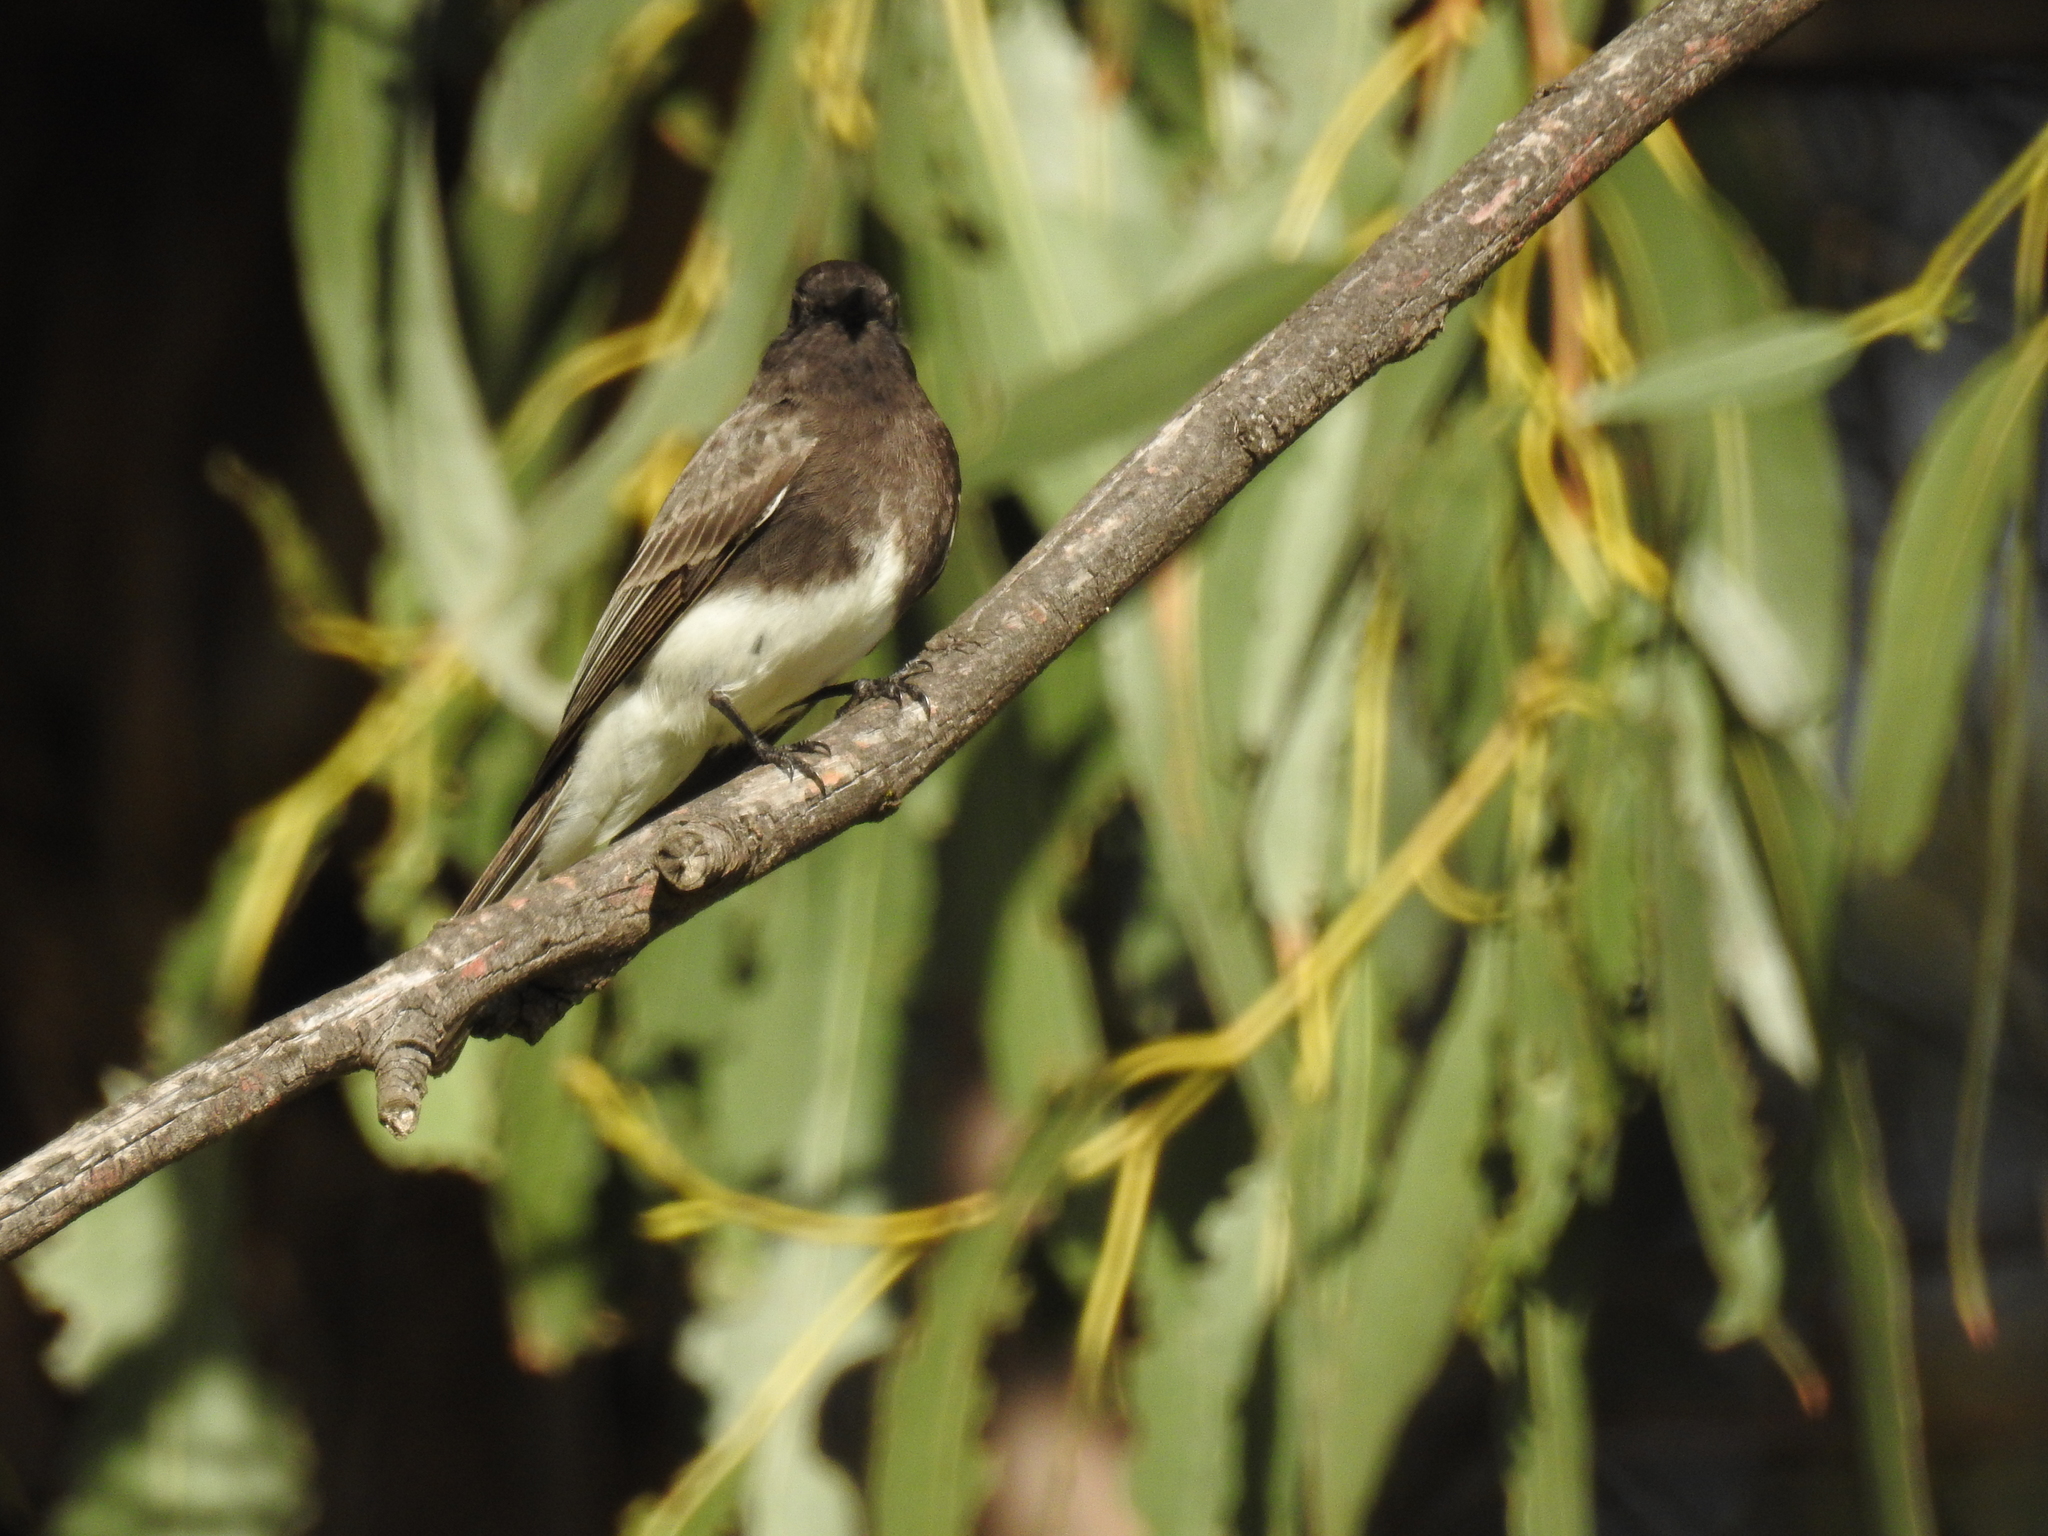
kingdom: Animalia
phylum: Chordata
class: Aves
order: Passeriformes
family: Tyrannidae
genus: Sayornis
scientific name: Sayornis nigricans
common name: Black phoebe
